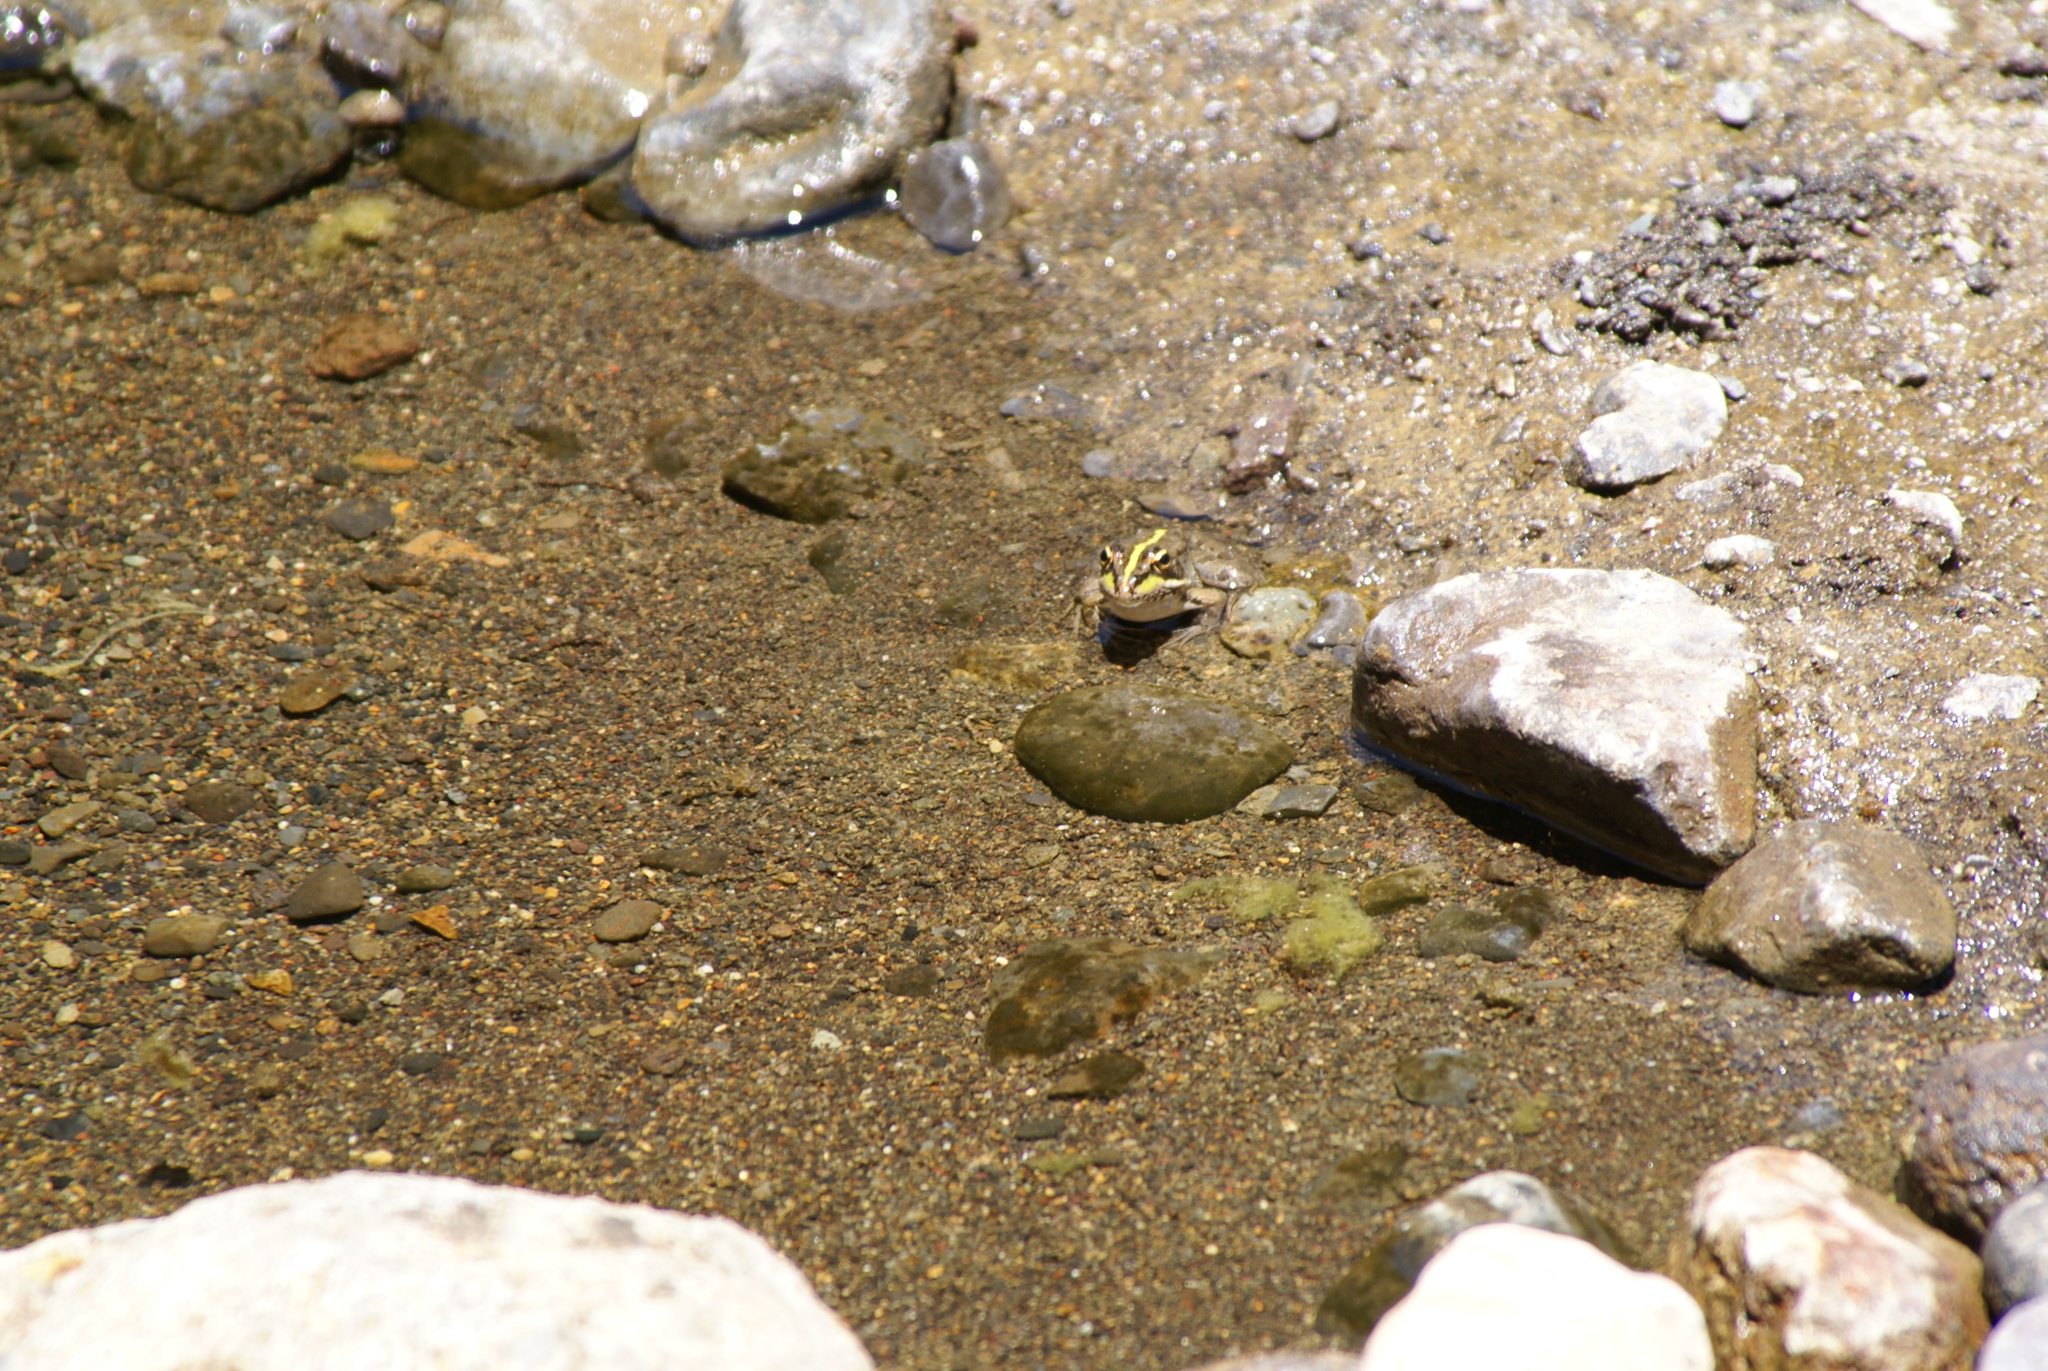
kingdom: Animalia
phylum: Chordata
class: Amphibia
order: Anura
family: Ranidae
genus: Pelophylax
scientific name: Pelophylax perezi
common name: Perez's frog
